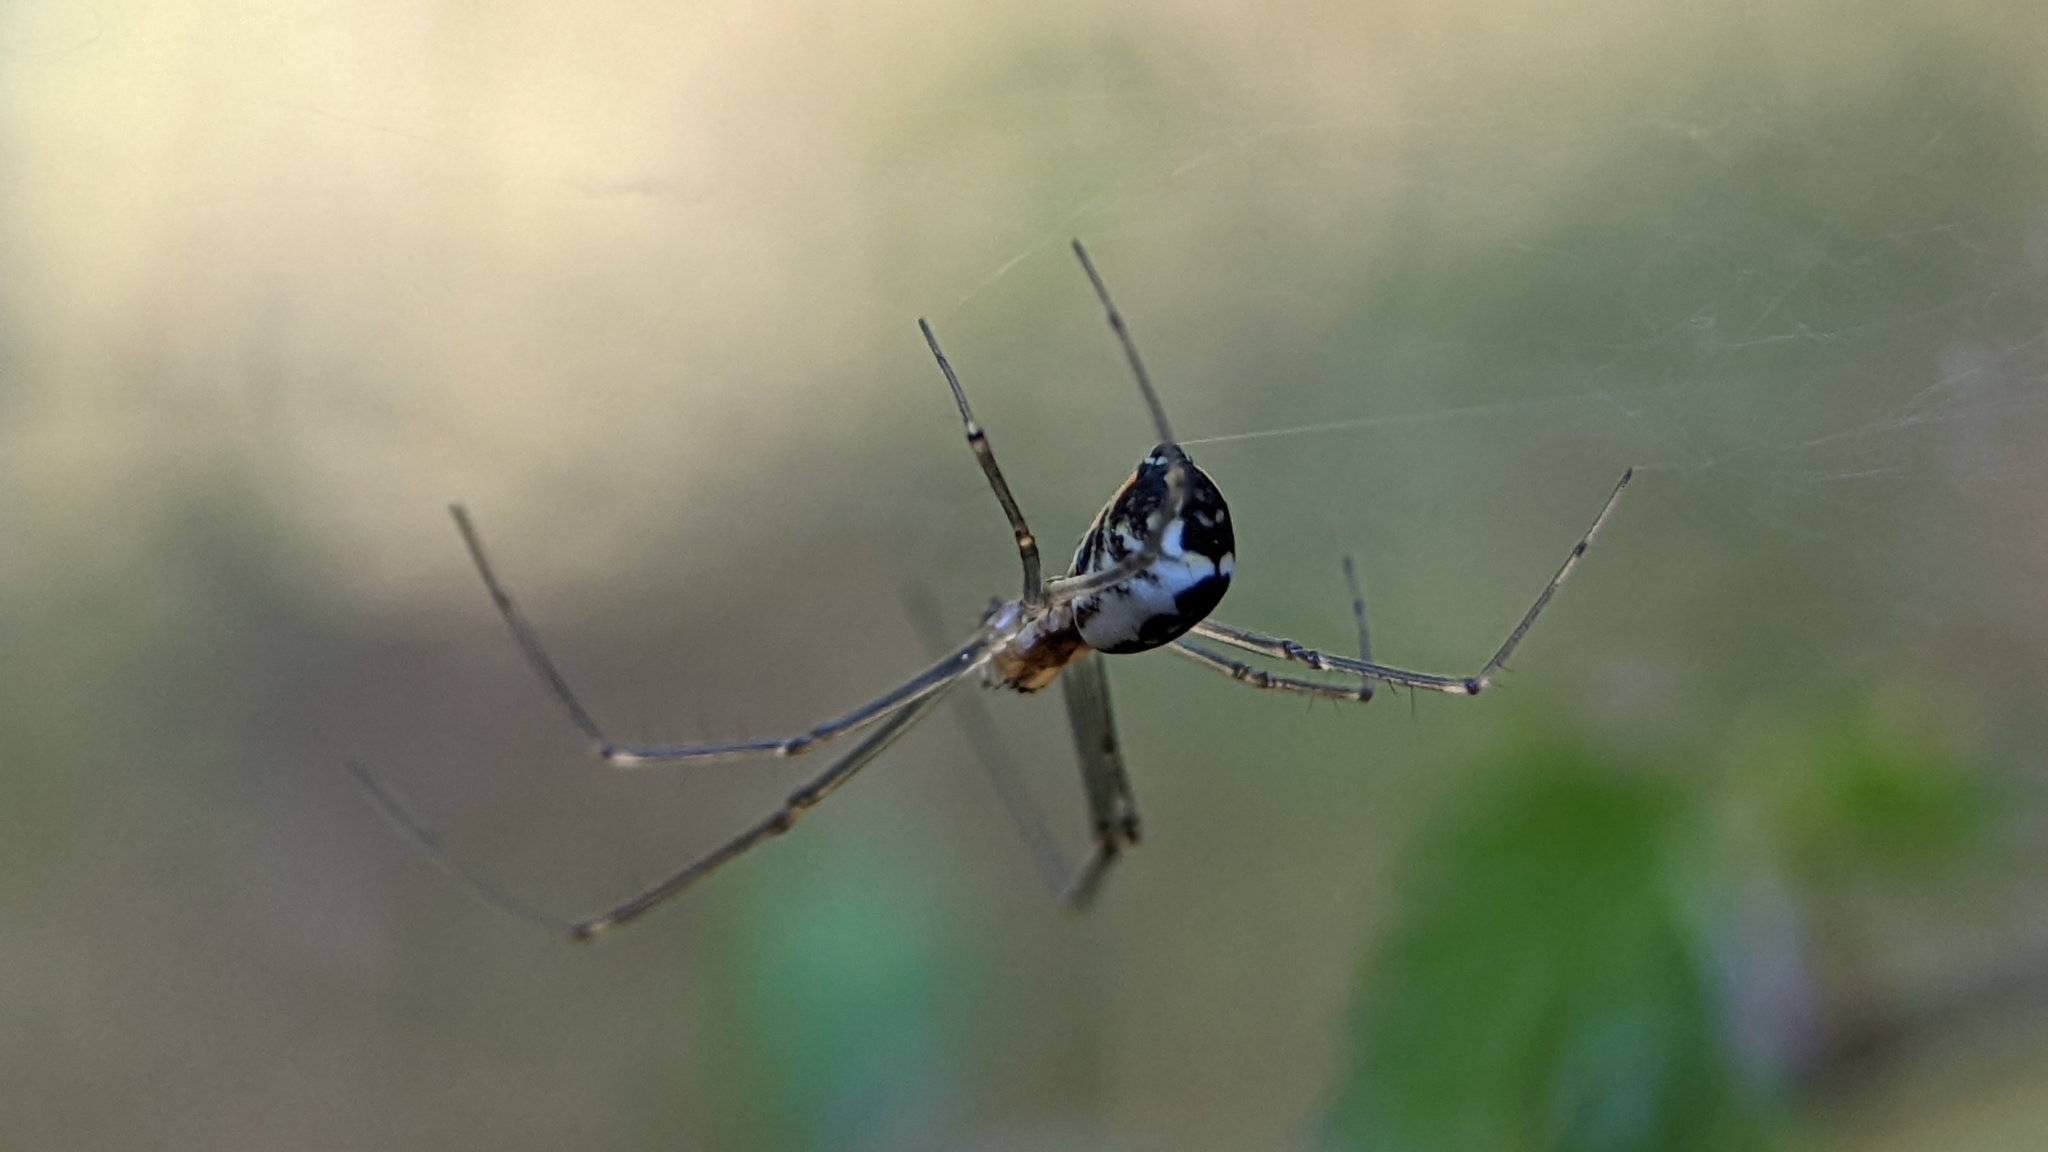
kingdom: Animalia
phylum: Arthropoda
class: Arachnida
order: Araneae
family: Linyphiidae
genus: Neriene
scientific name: Neriene radiata
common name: Filmy dome spider
